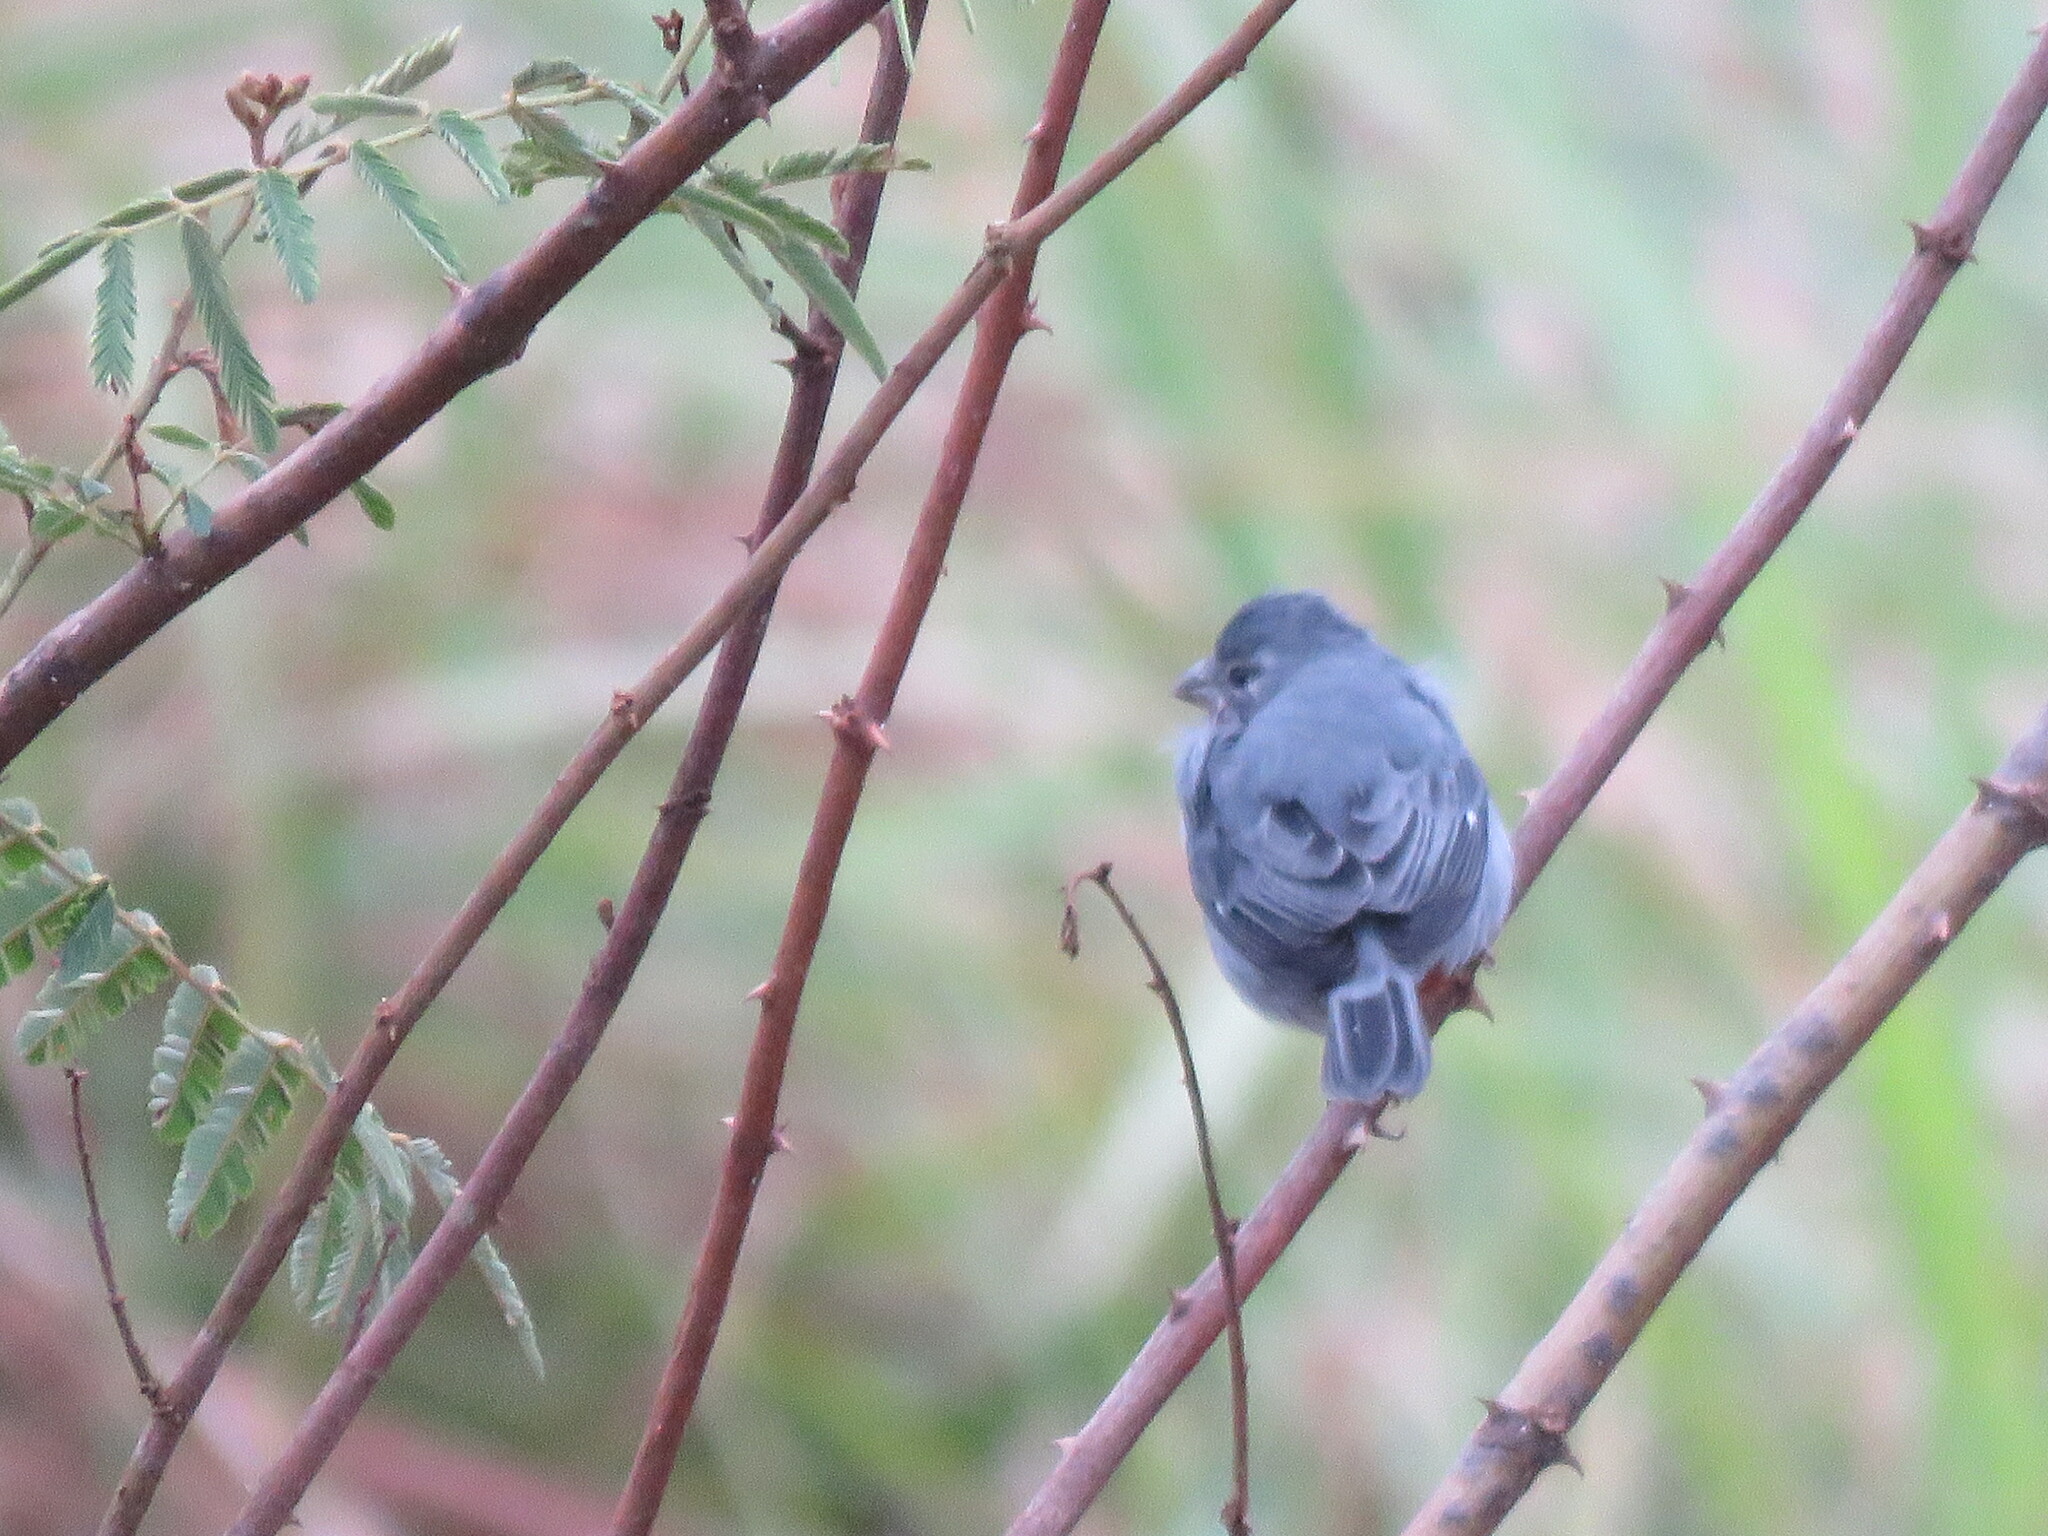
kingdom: Animalia
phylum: Chordata
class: Aves
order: Passeriformes
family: Thraupidae
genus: Sporophila
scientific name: Sporophila castaneiventris
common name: Chestnut-bellied seedeater
